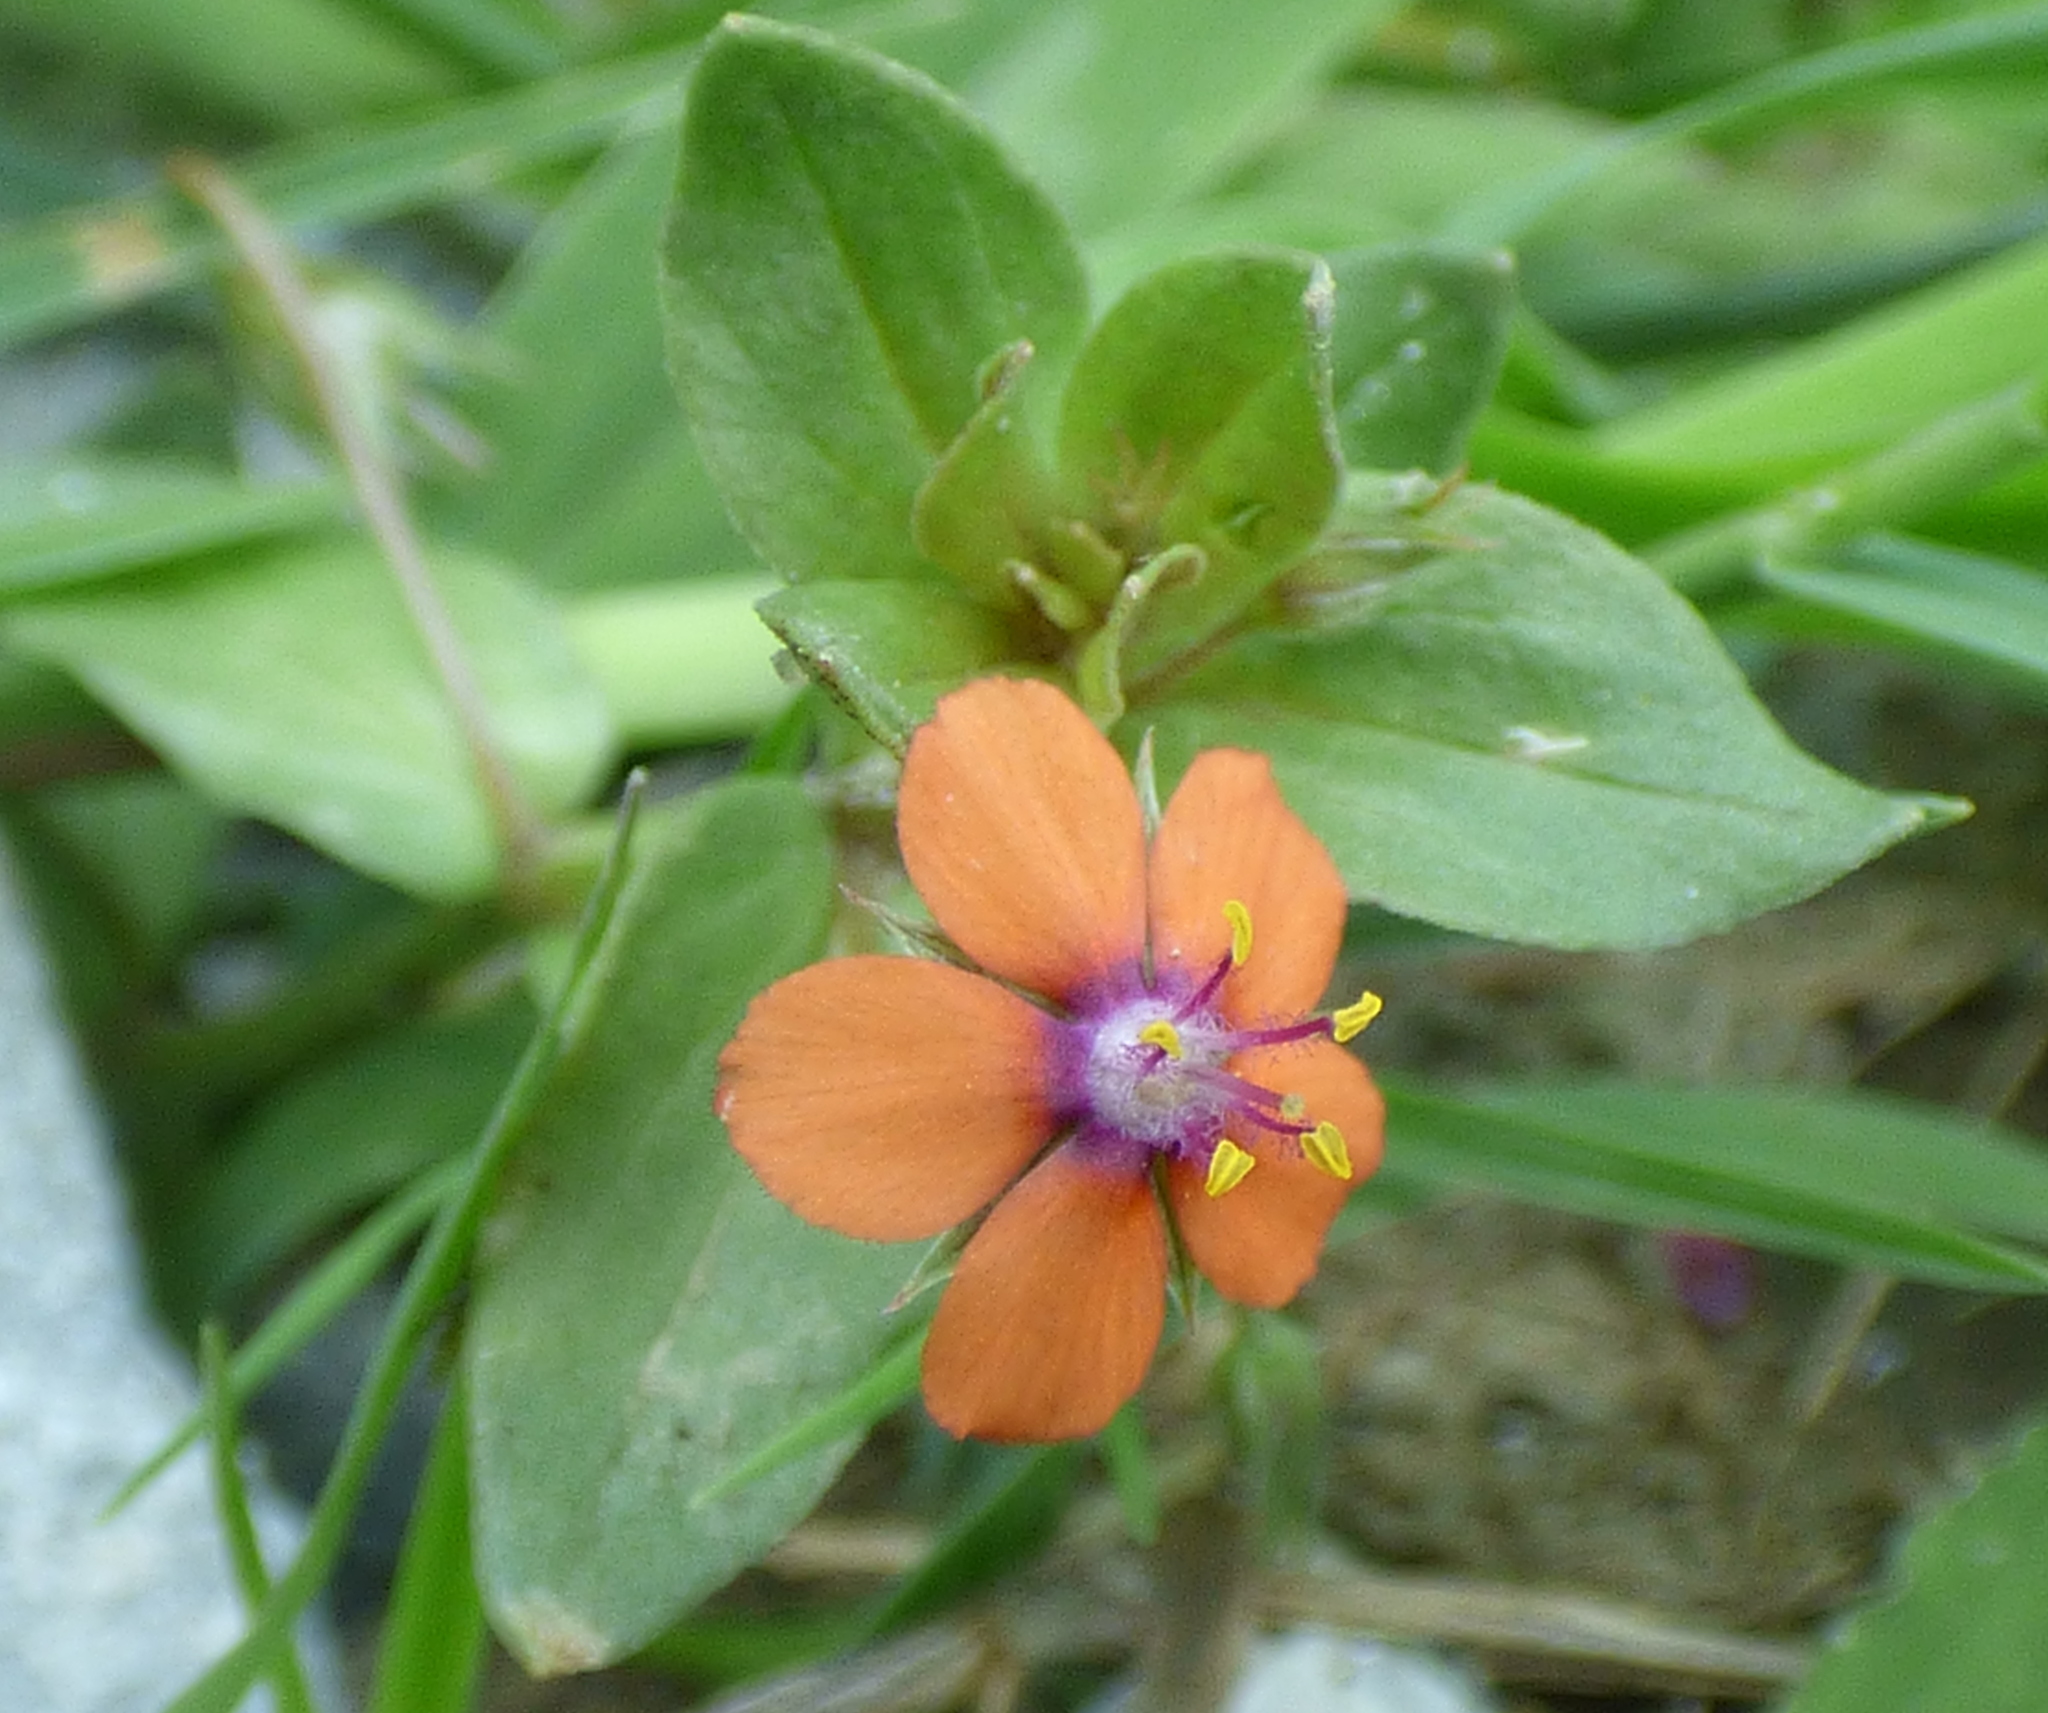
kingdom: Plantae
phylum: Tracheophyta
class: Magnoliopsida
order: Ericales
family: Primulaceae
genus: Lysimachia
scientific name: Lysimachia arvensis
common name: Scarlet pimpernel
